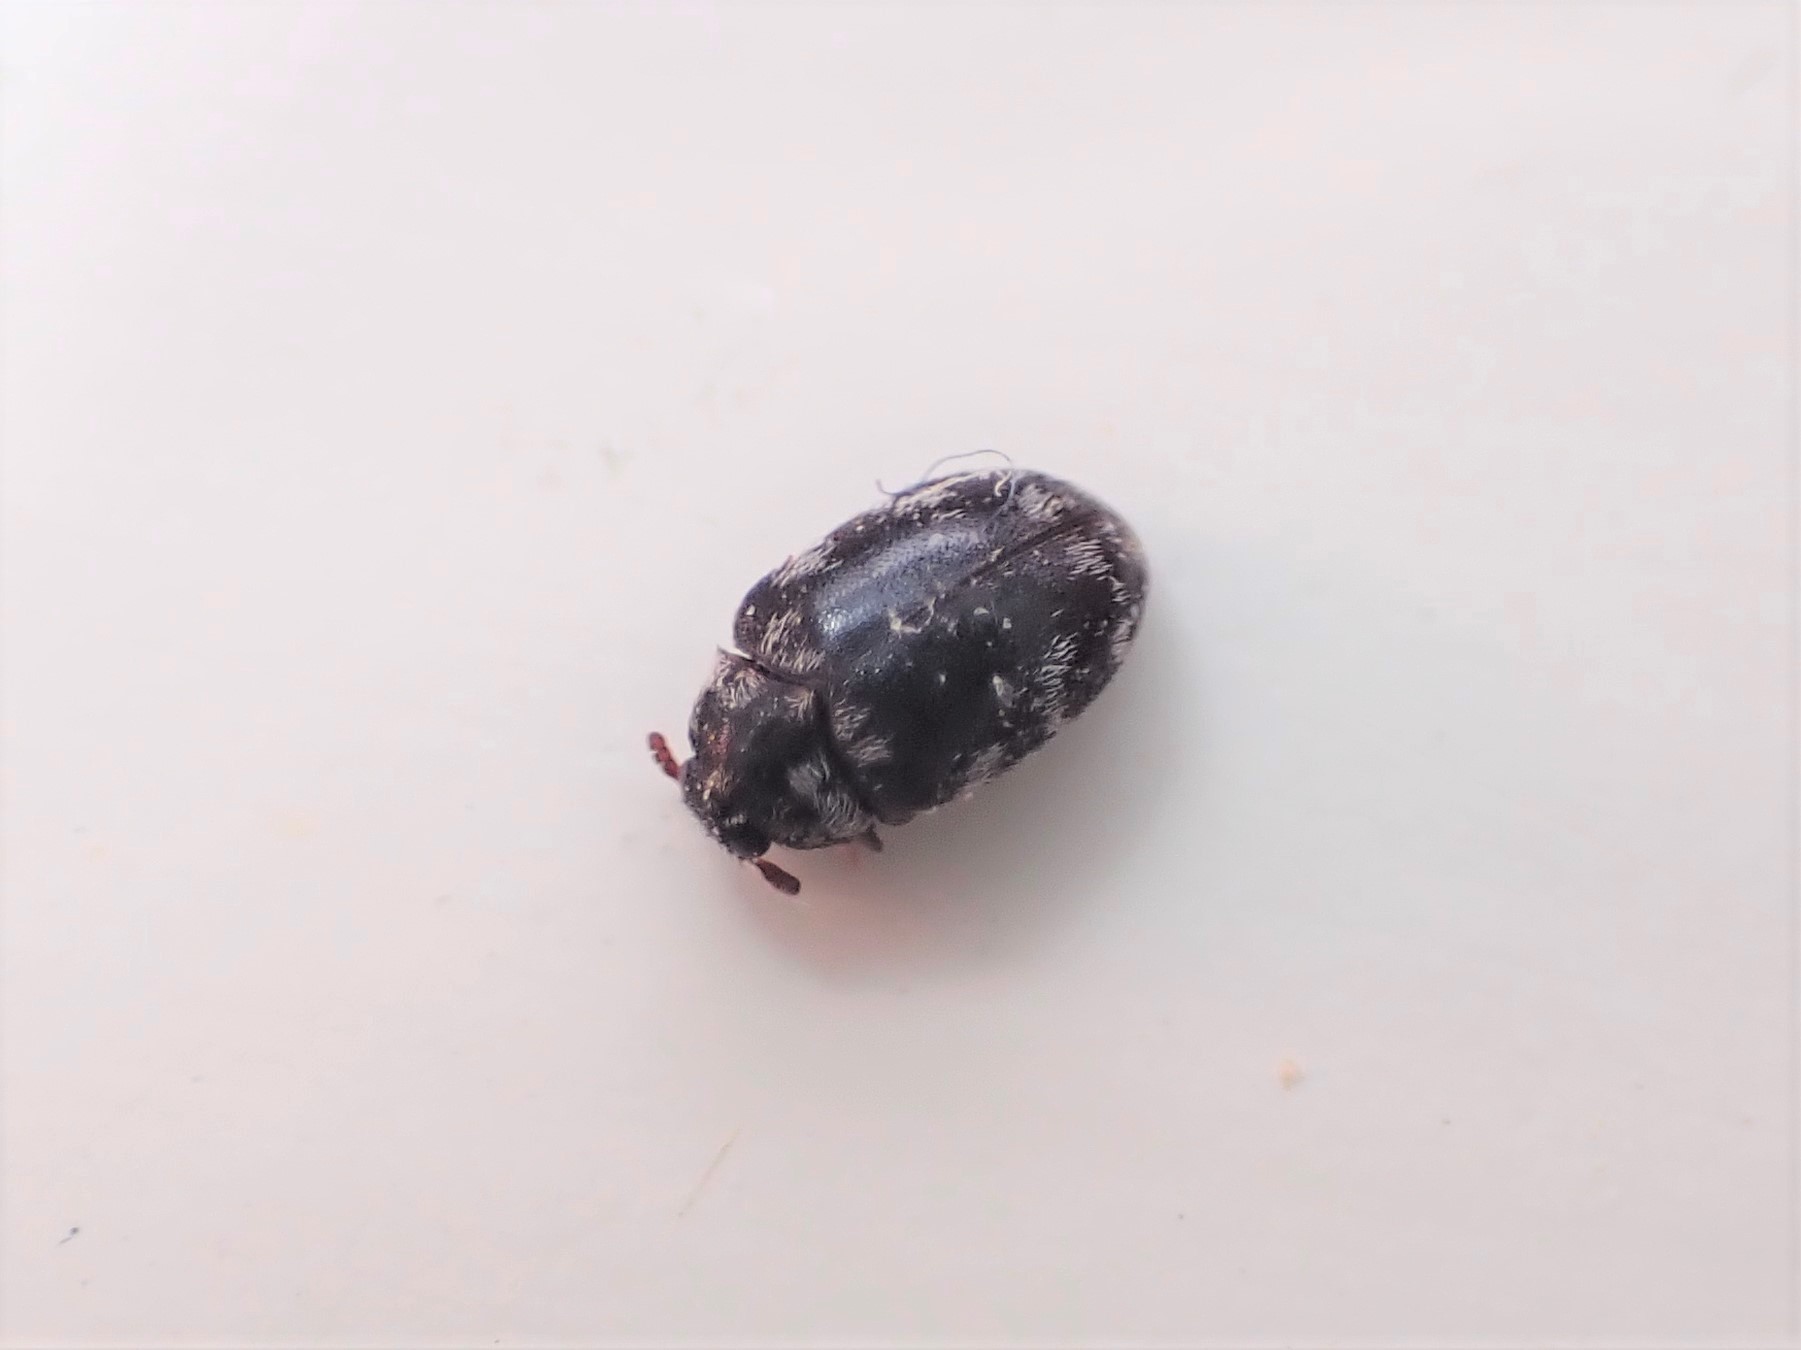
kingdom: Animalia
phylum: Arthropoda
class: Insecta
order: Coleoptera
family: Dermestidae
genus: Anthrenocerus
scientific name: Anthrenocerus australis
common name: Australian carpet beetle
